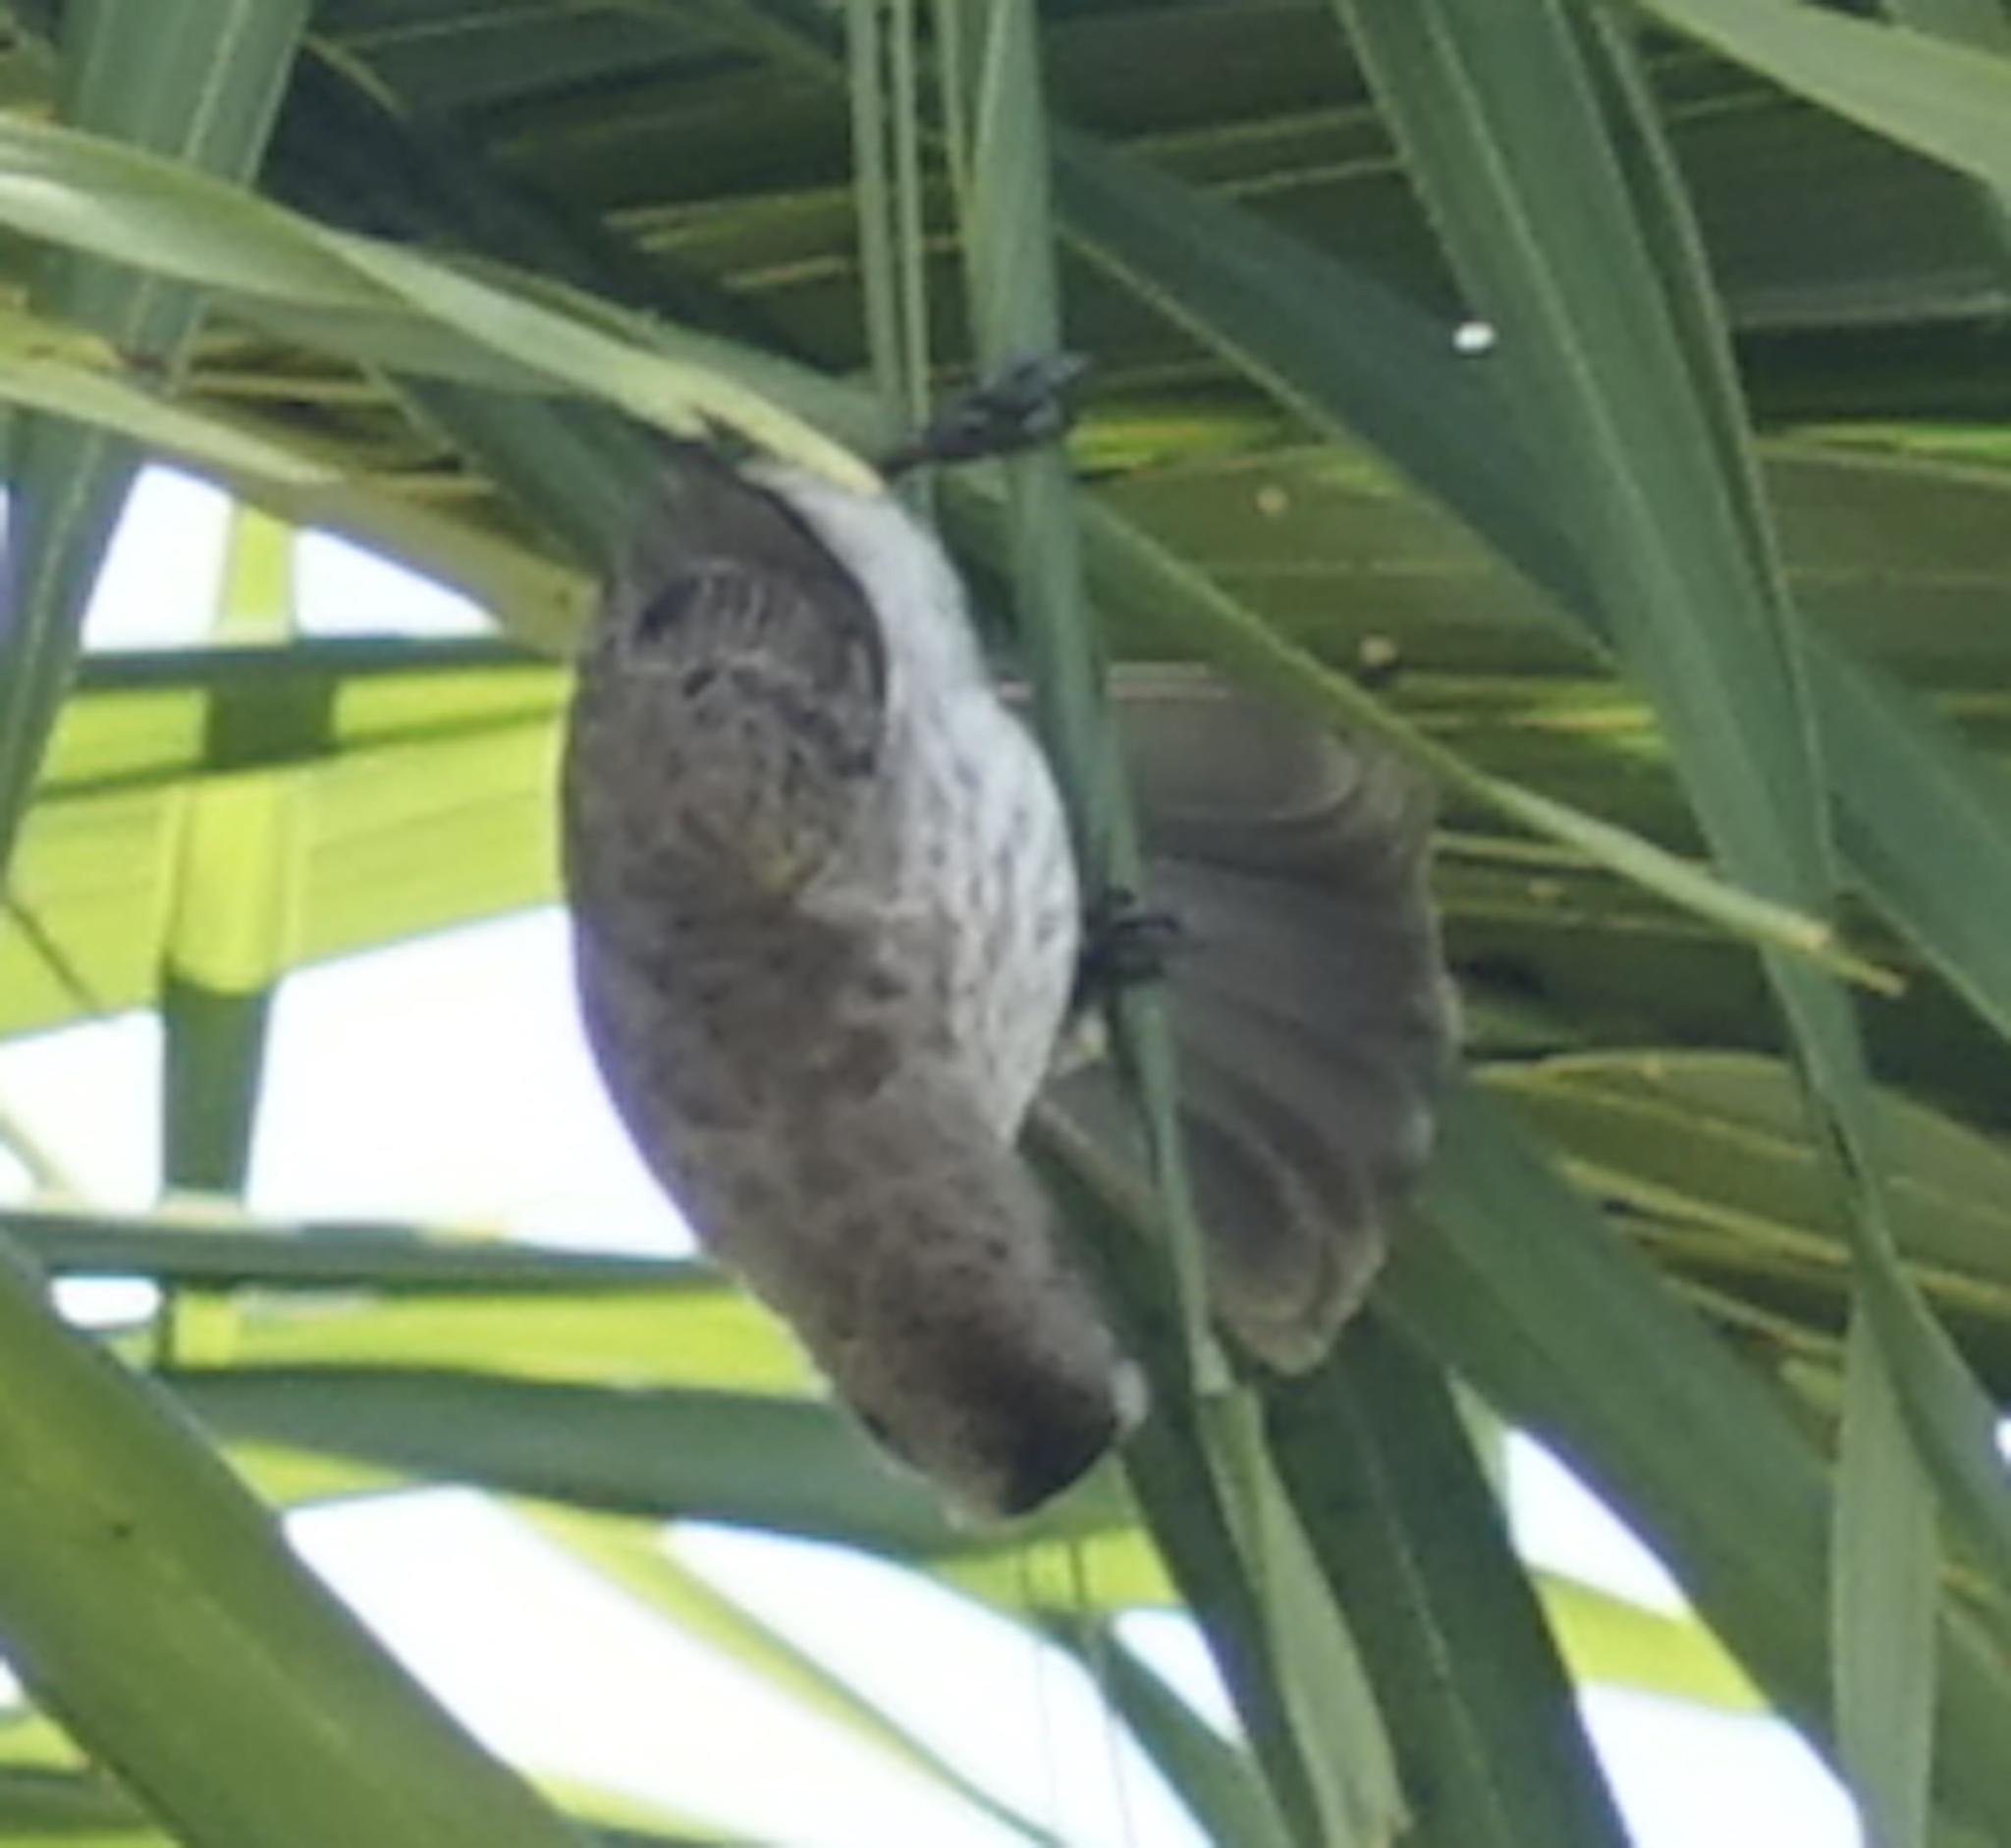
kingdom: Animalia
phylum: Chordata
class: Aves
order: Passeriformes
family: Pycnonotidae
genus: Pycnonotus
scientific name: Pycnonotus goiavier
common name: Yellow-vented bulbul
